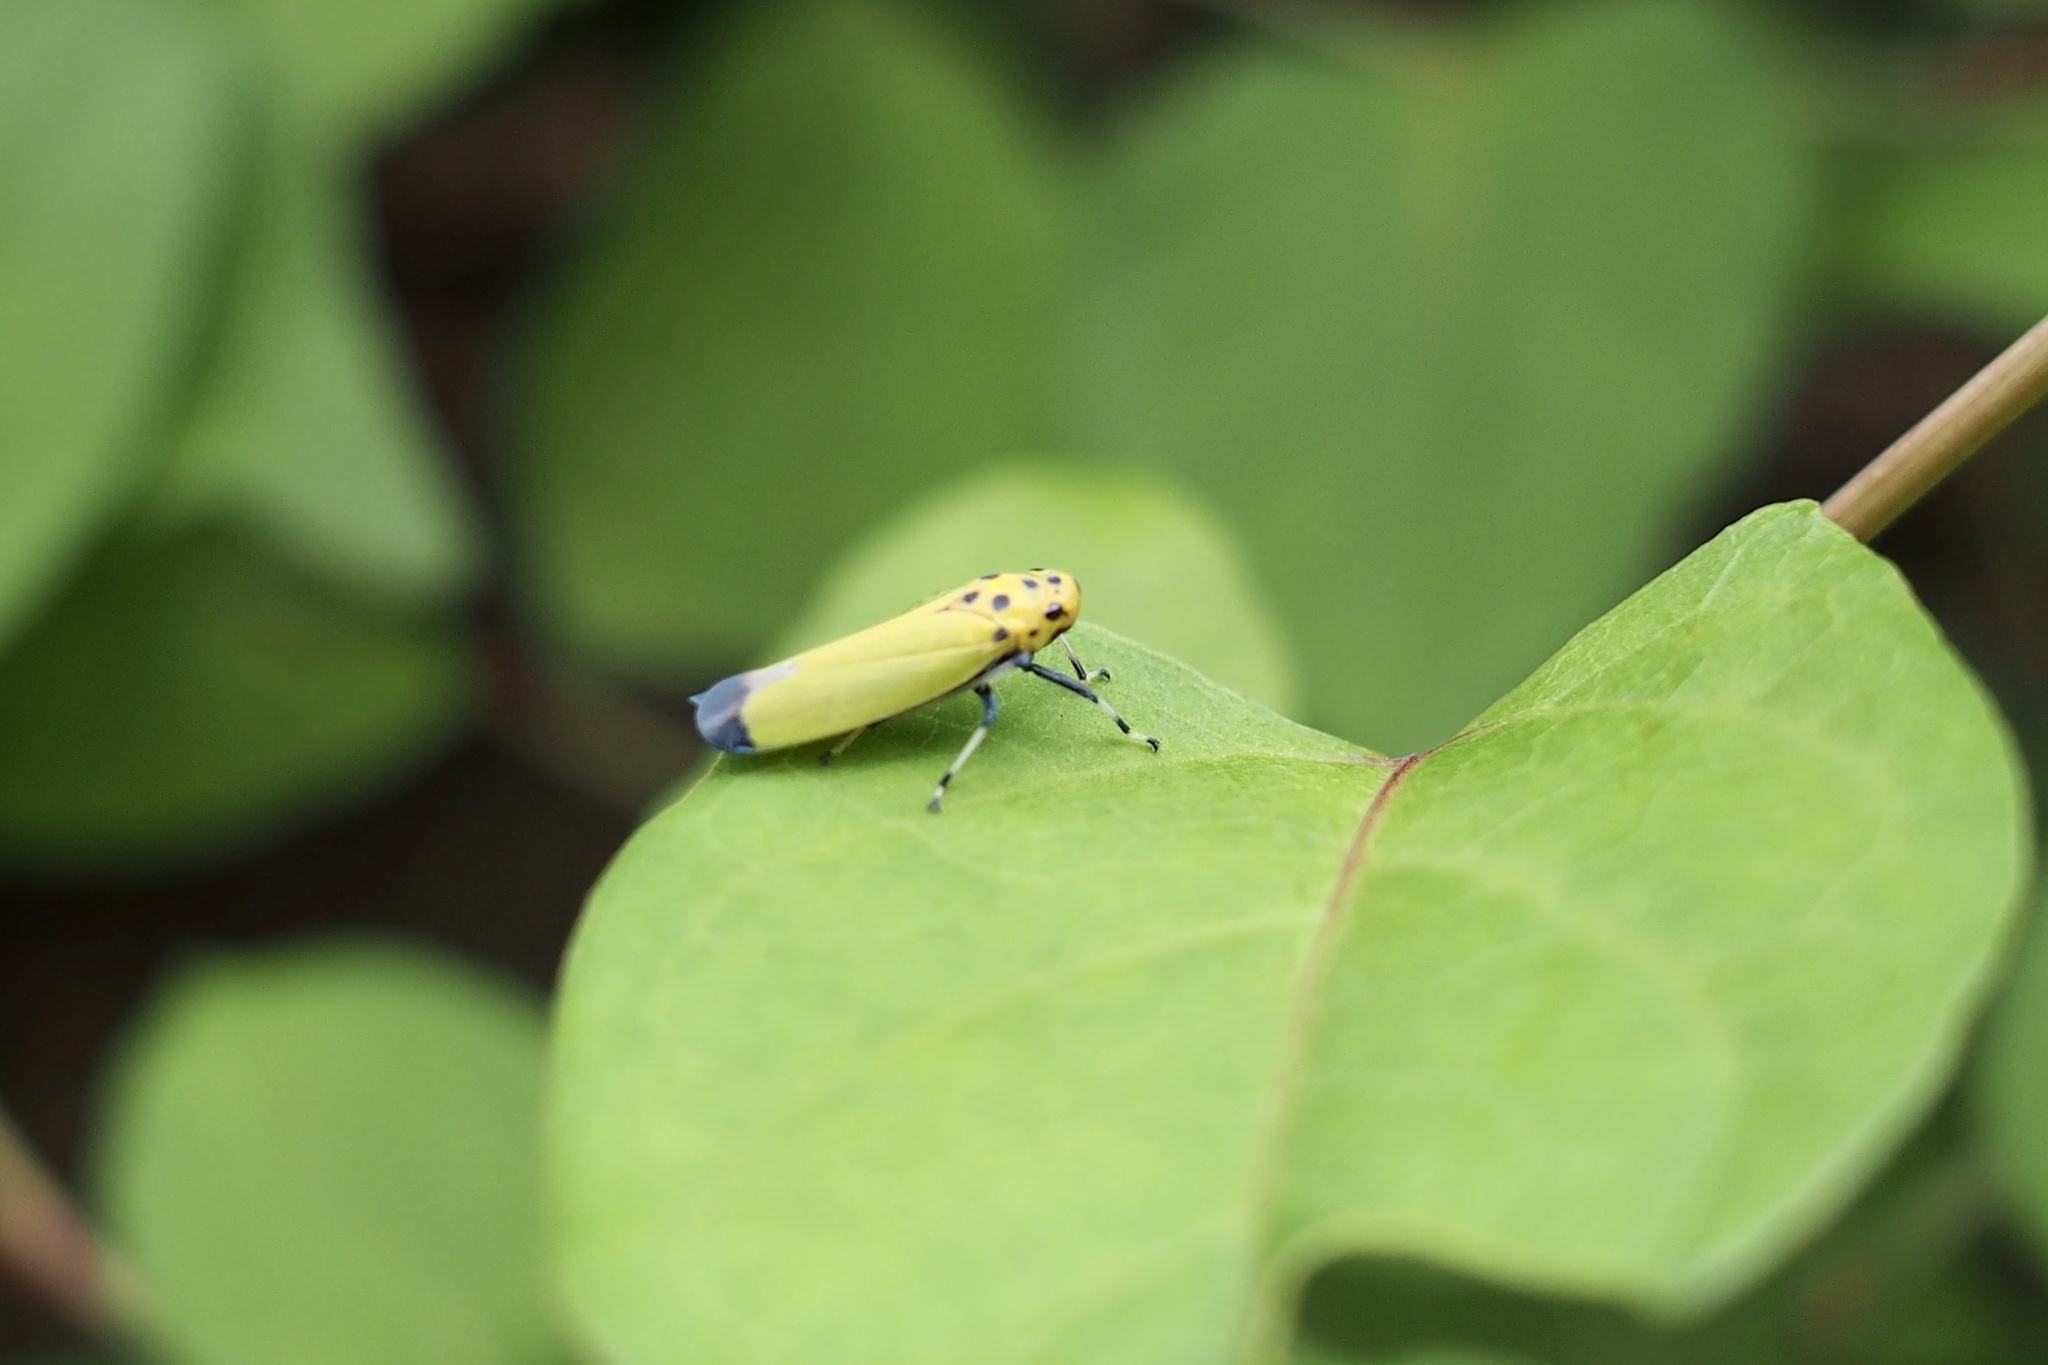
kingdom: Animalia
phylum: Arthropoda
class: Insecta
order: Hemiptera
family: Cicadellidae
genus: Bothrogonia
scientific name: Bothrogonia ferruginea
